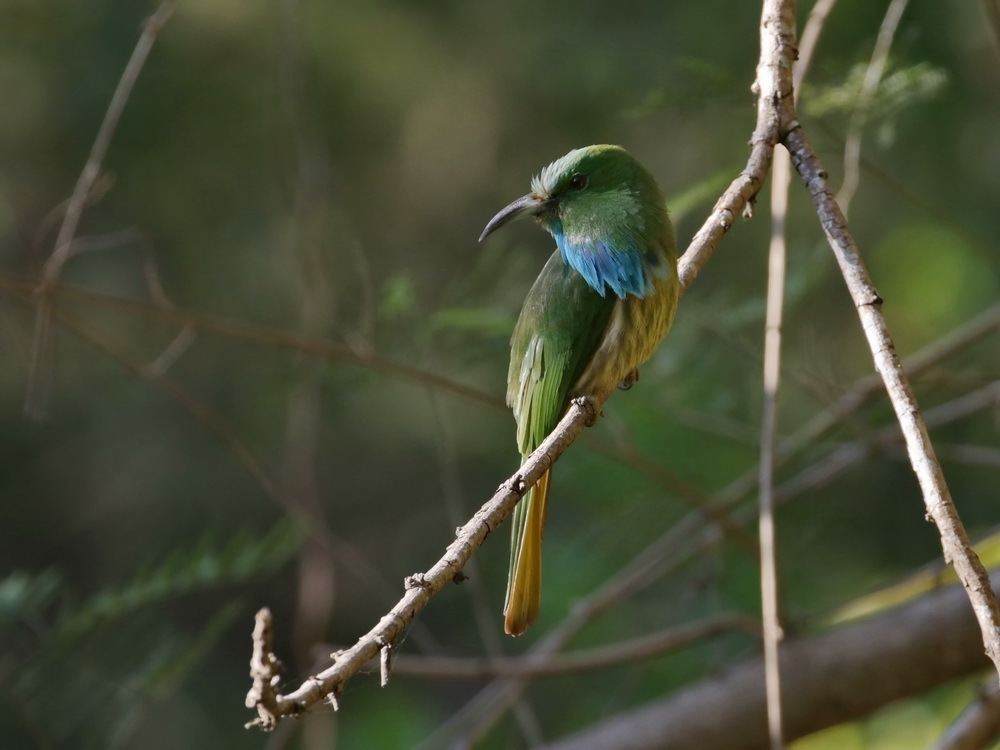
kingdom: Animalia
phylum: Chordata
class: Aves
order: Coraciiformes
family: Meropidae
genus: Nyctyornis
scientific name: Nyctyornis athertoni
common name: Blue-bearded bee-eater
